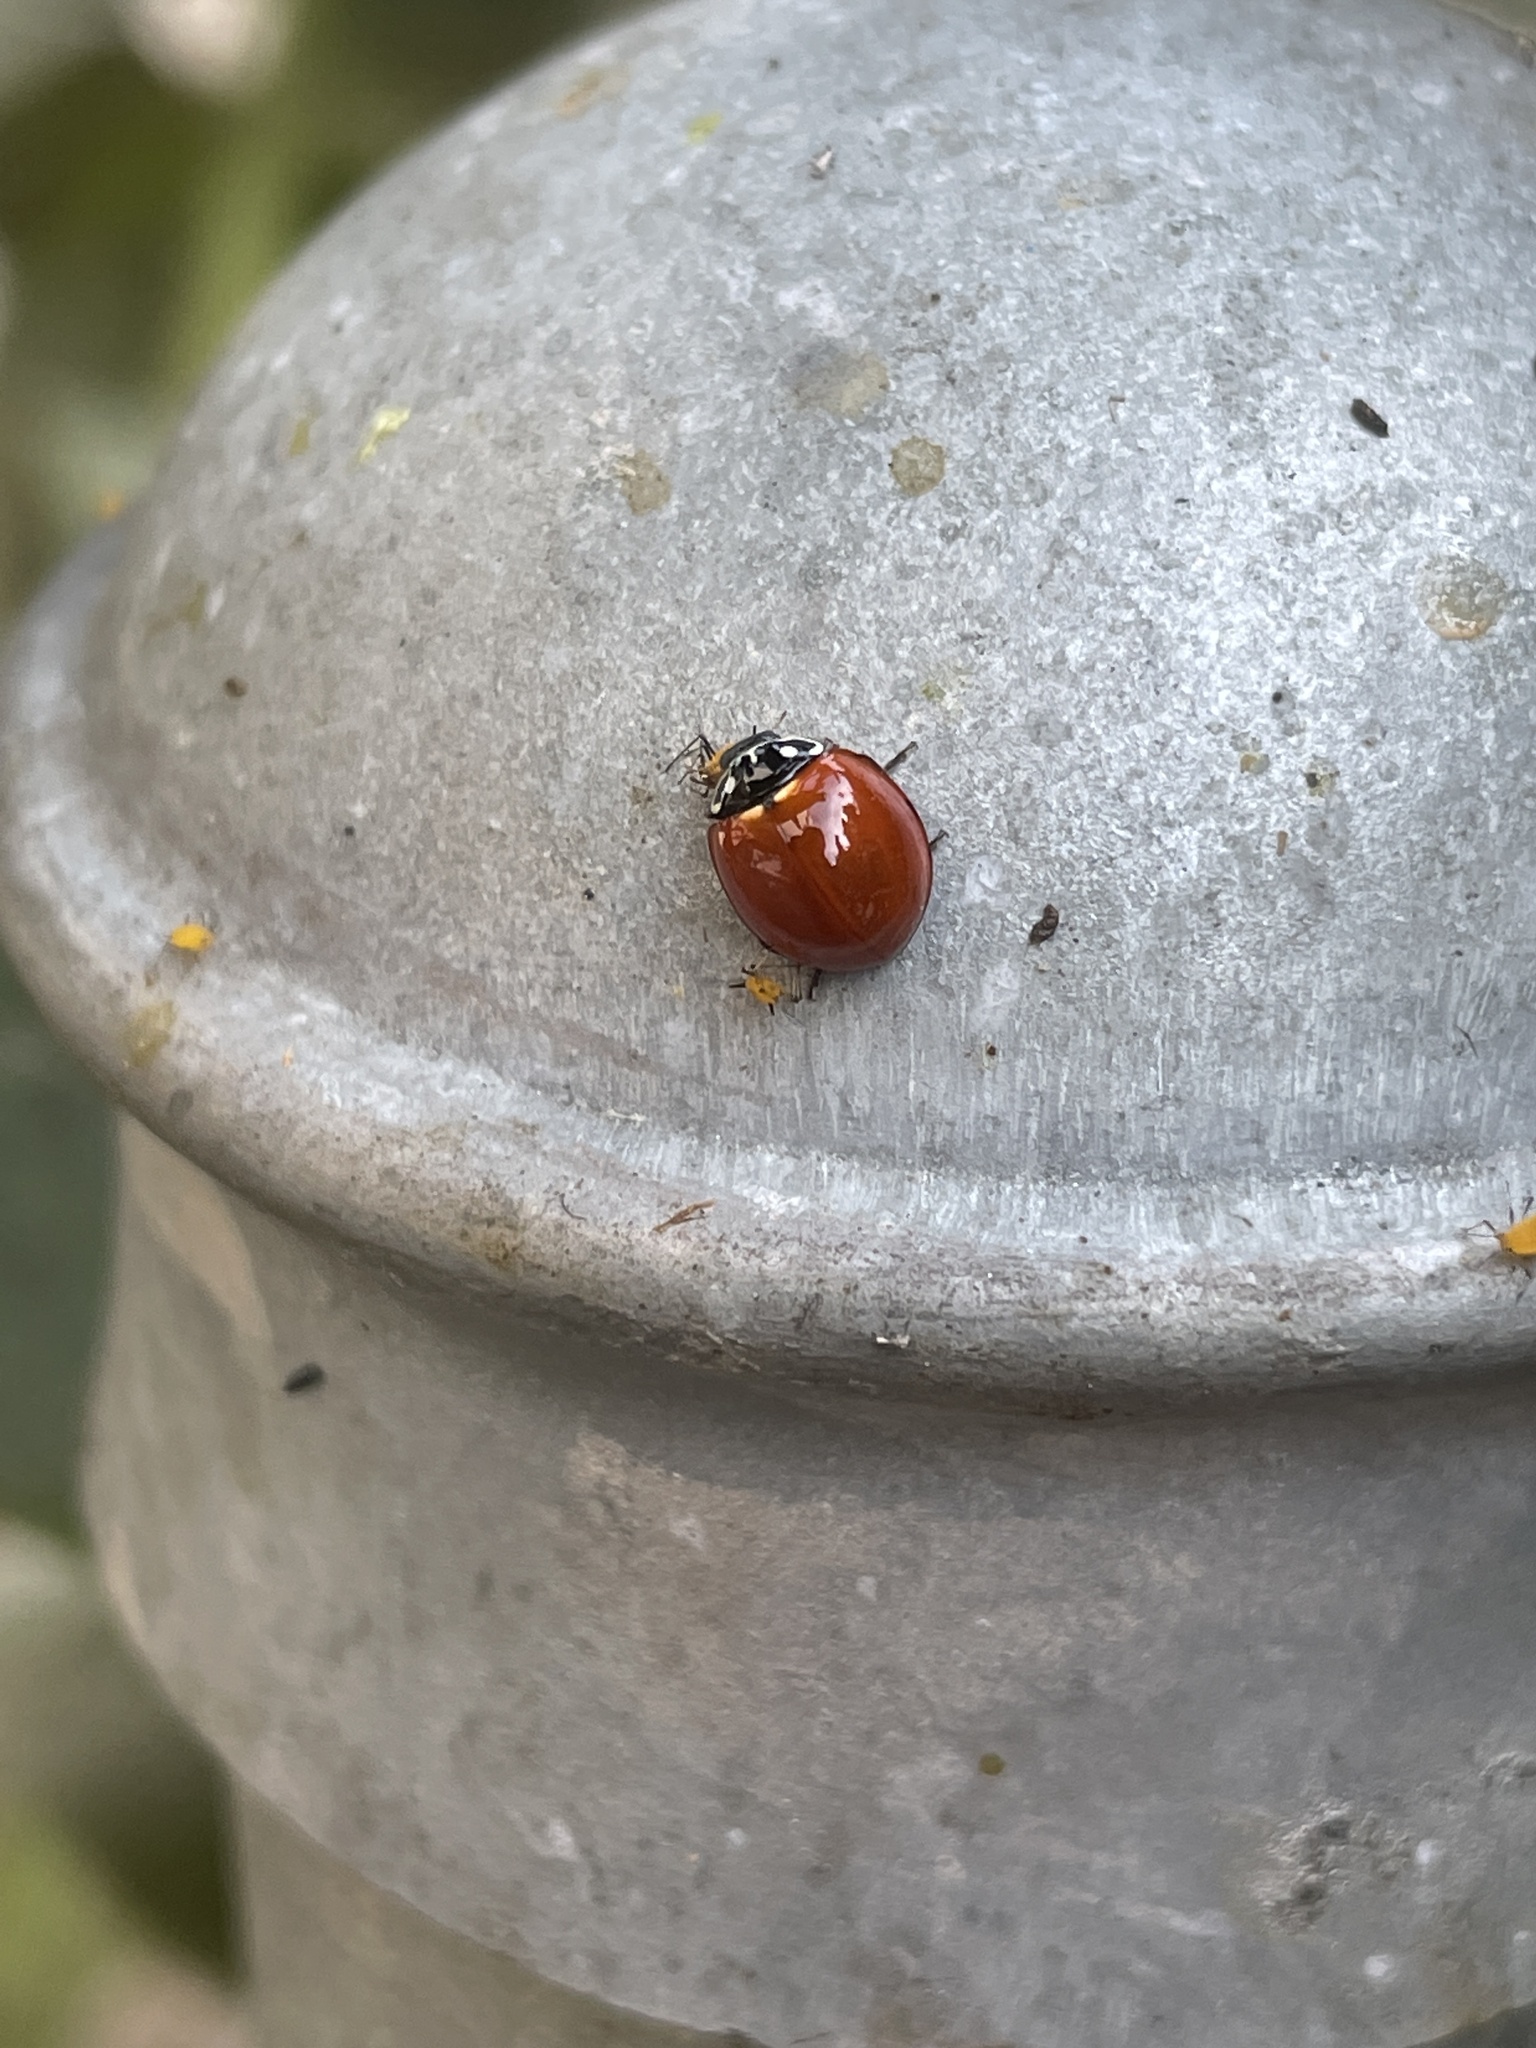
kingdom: Animalia
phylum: Arthropoda
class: Insecta
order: Coleoptera
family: Coccinellidae
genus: Cycloneda
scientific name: Cycloneda sanguinea
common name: Ladybird beetle
